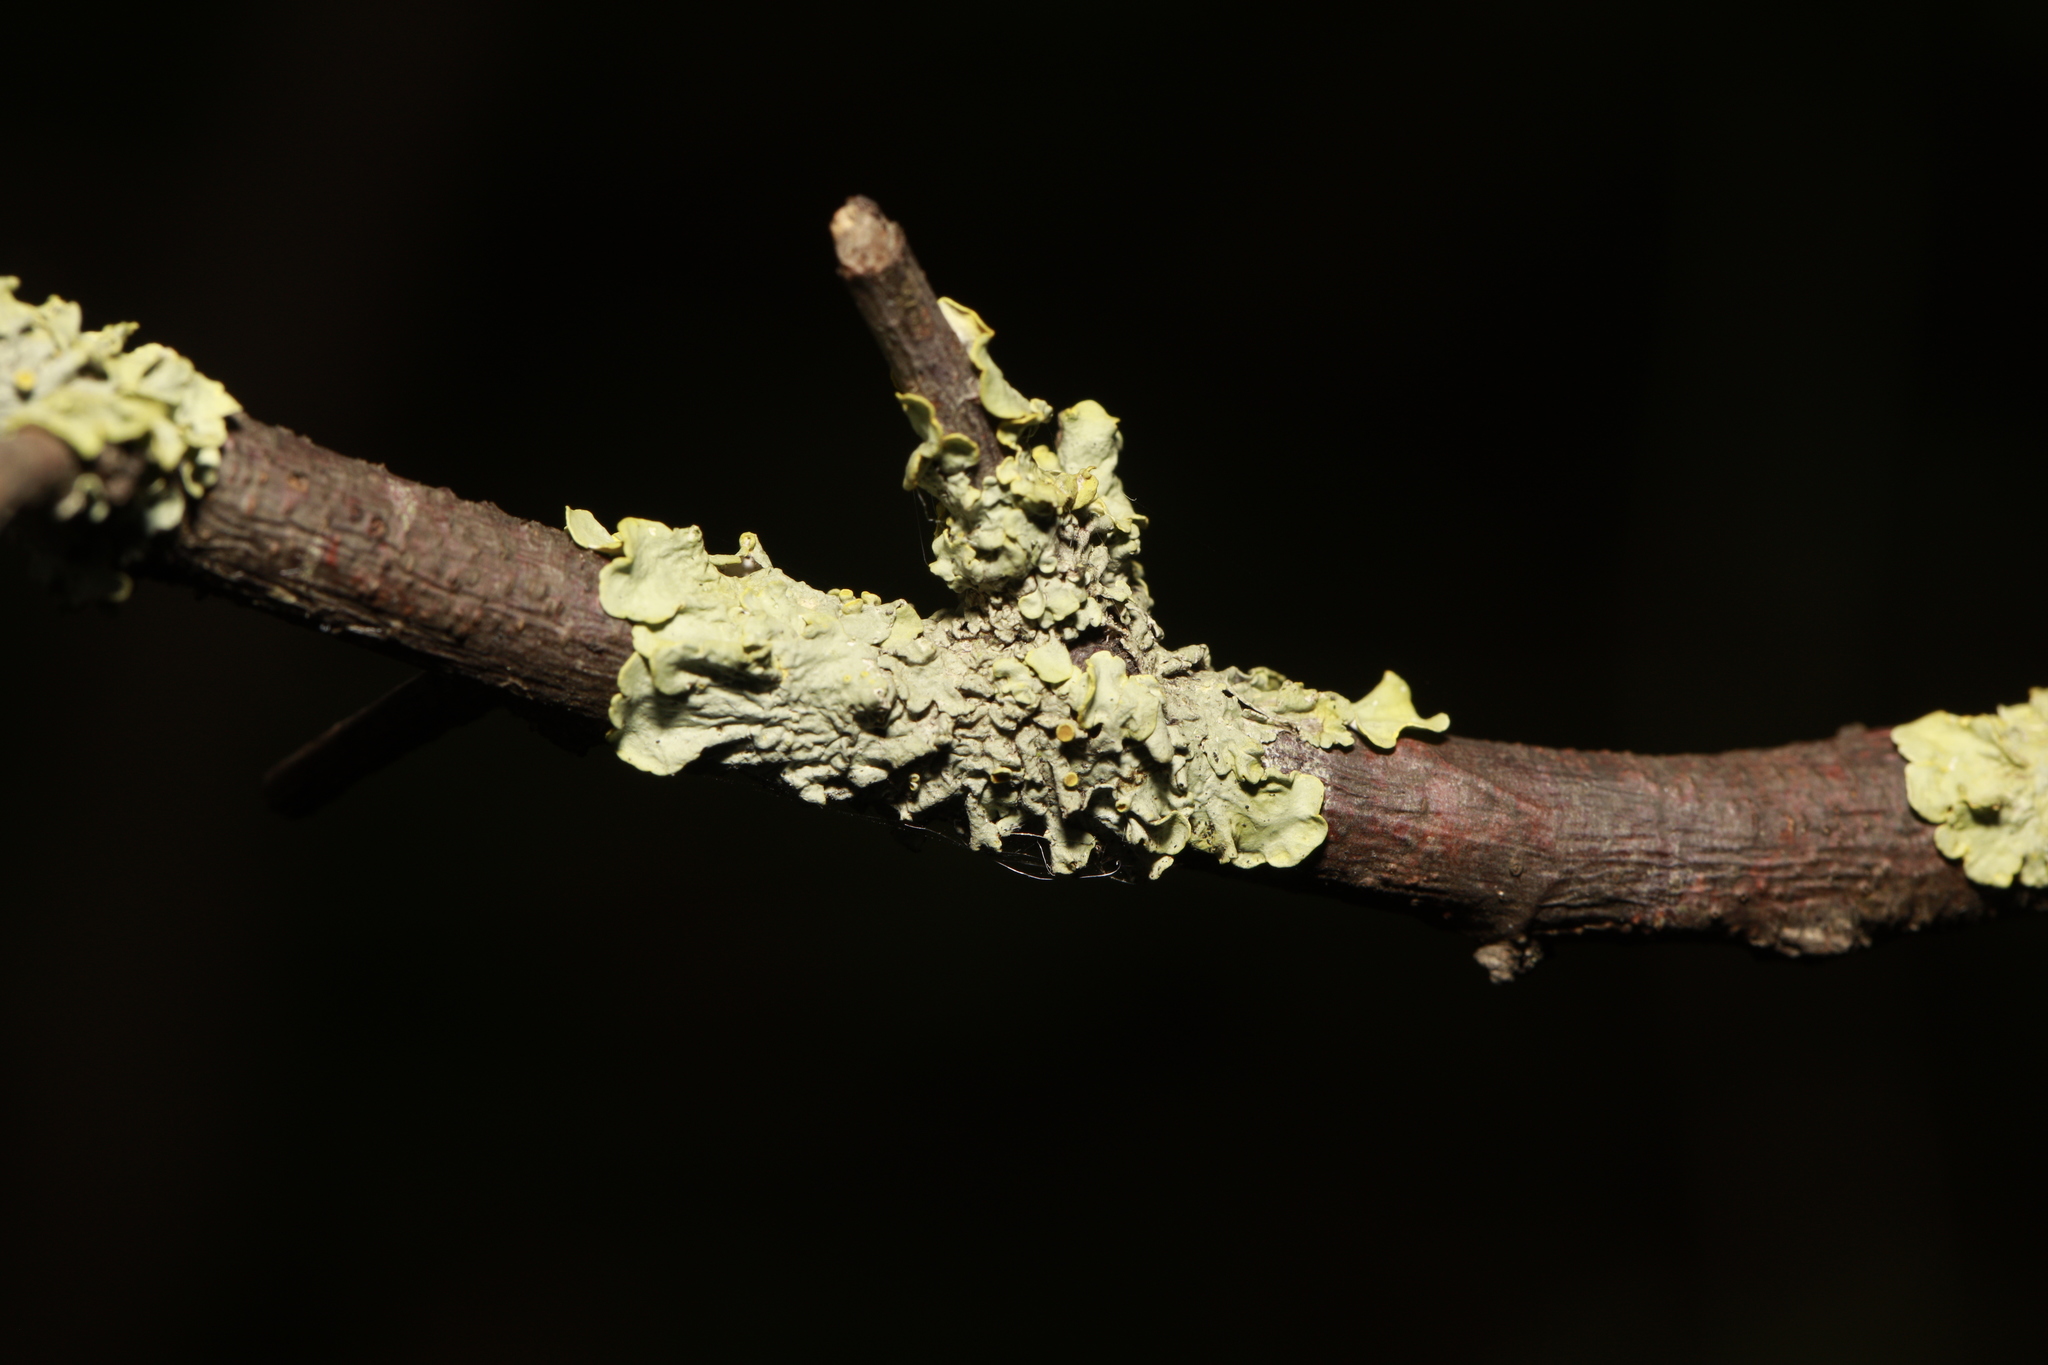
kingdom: Fungi
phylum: Ascomycota
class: Lecanoromycetes
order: Teloschistales
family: Teloschistaceae
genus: Xanthoria
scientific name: Xanthoria parietina
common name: Common orange lichen
